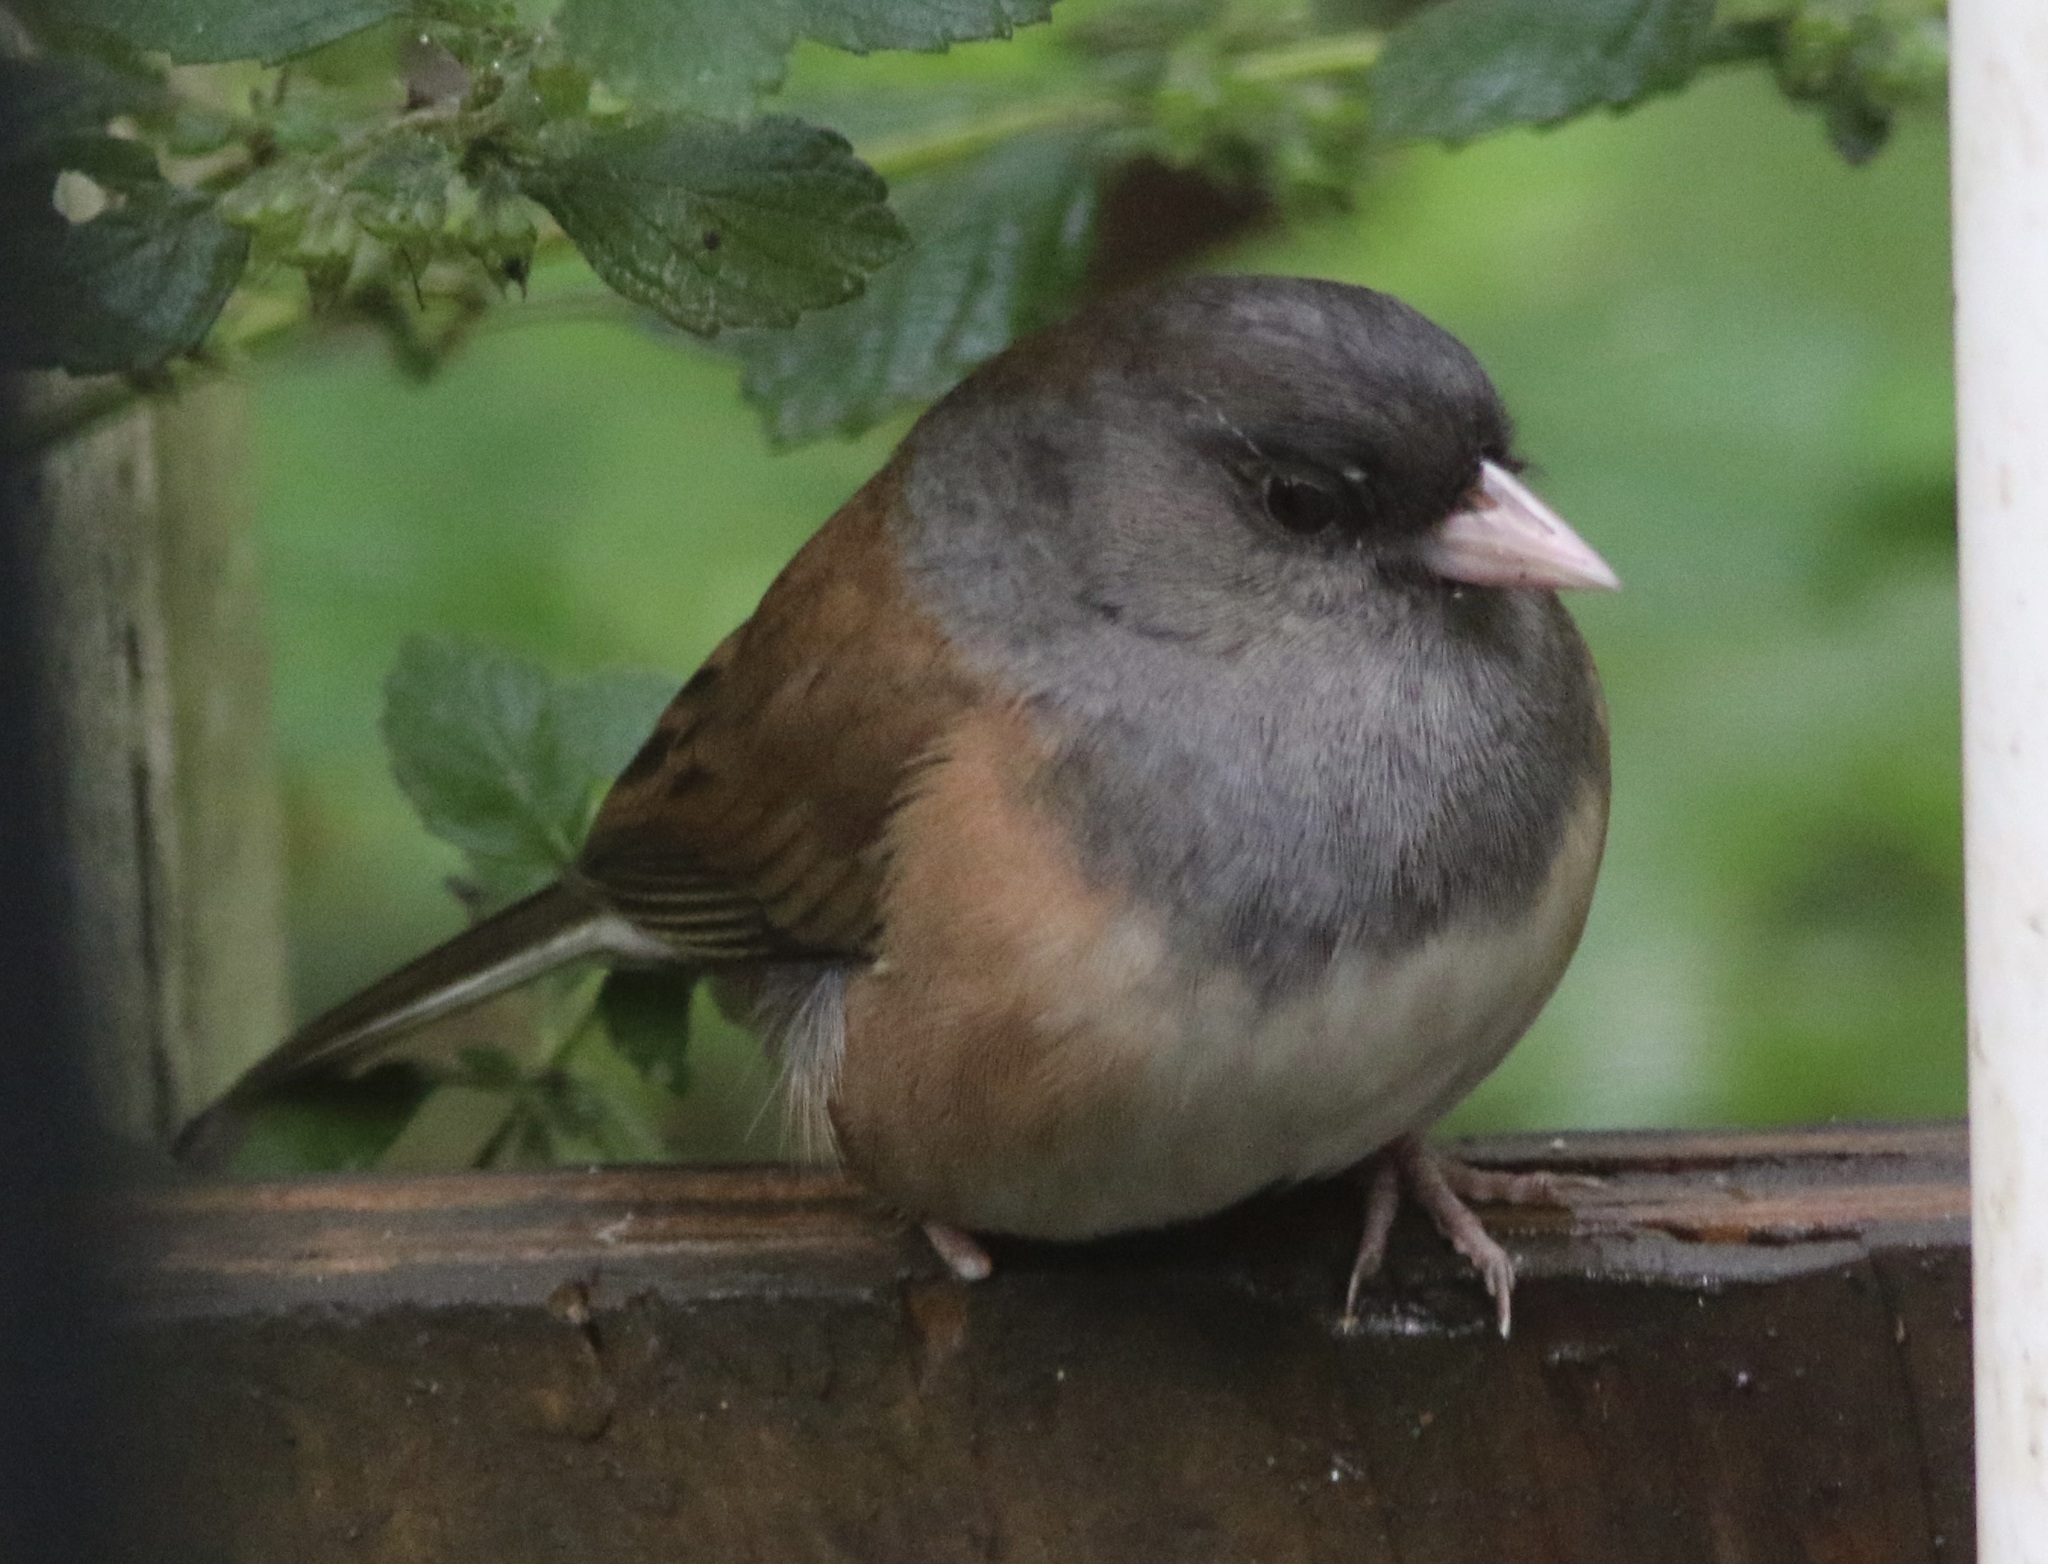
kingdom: Animalia
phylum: Chordata
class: Aves
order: Passeriformes
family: Passerellidae
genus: Junco
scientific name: Junco hyemalis
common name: Dark-eyed junco
